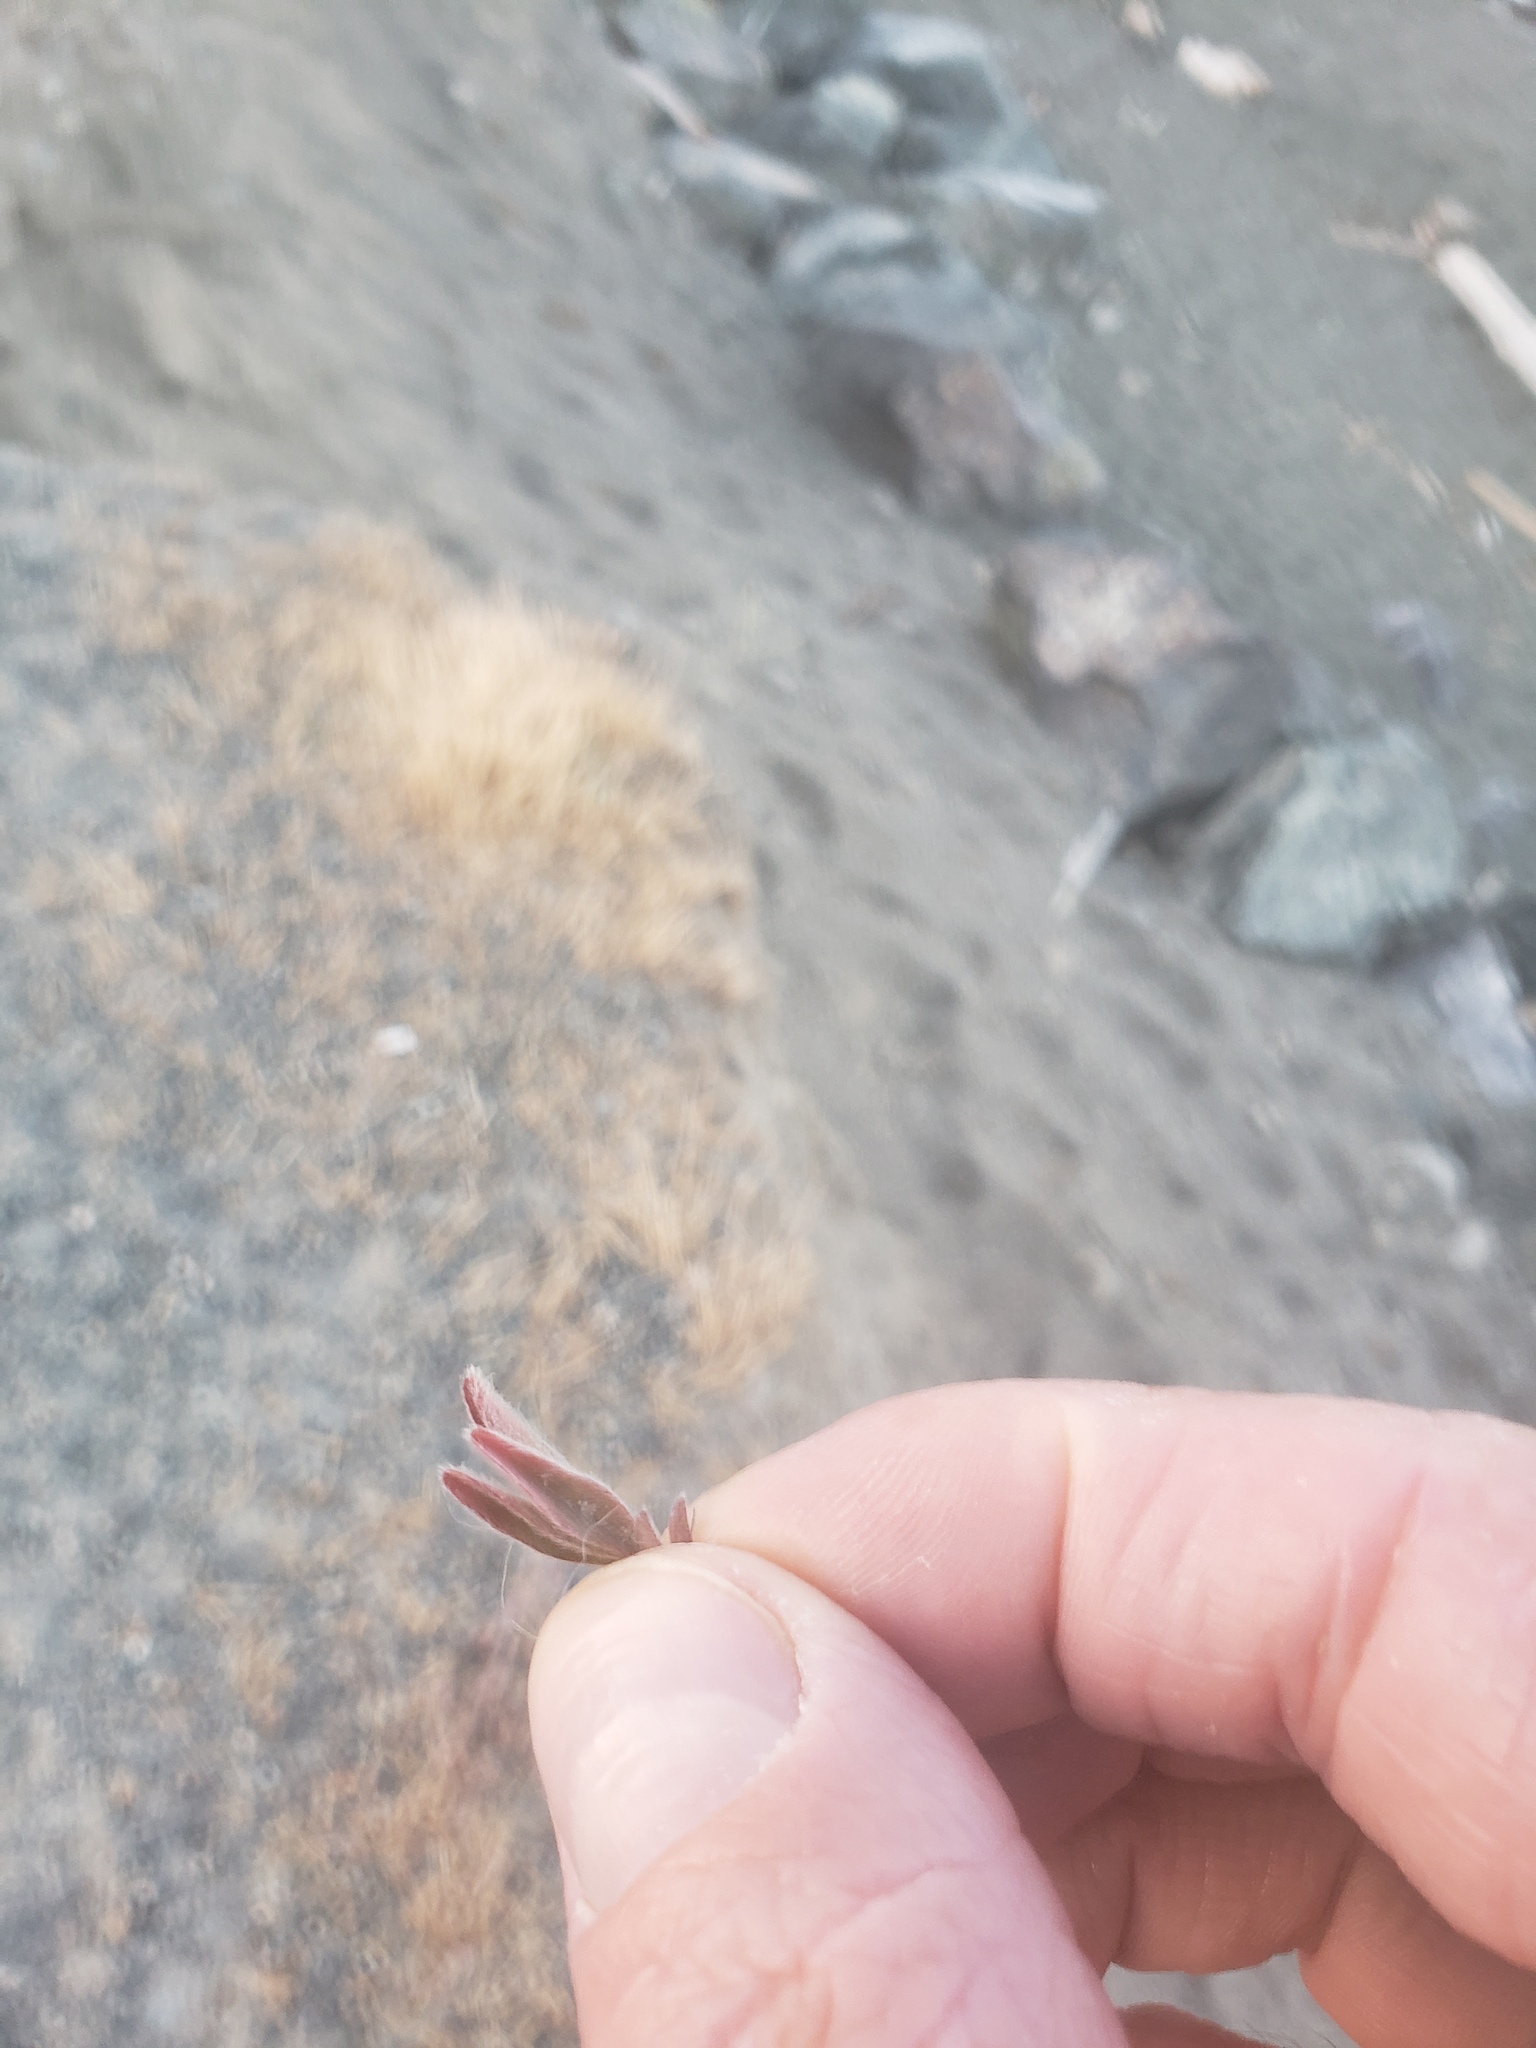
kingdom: Plantae
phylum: Tracheophyta
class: Magnoliopsida
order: Fabales
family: Fabaceae
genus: Trifolium
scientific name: Trifolium arvense
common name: Hare's-foot clover
